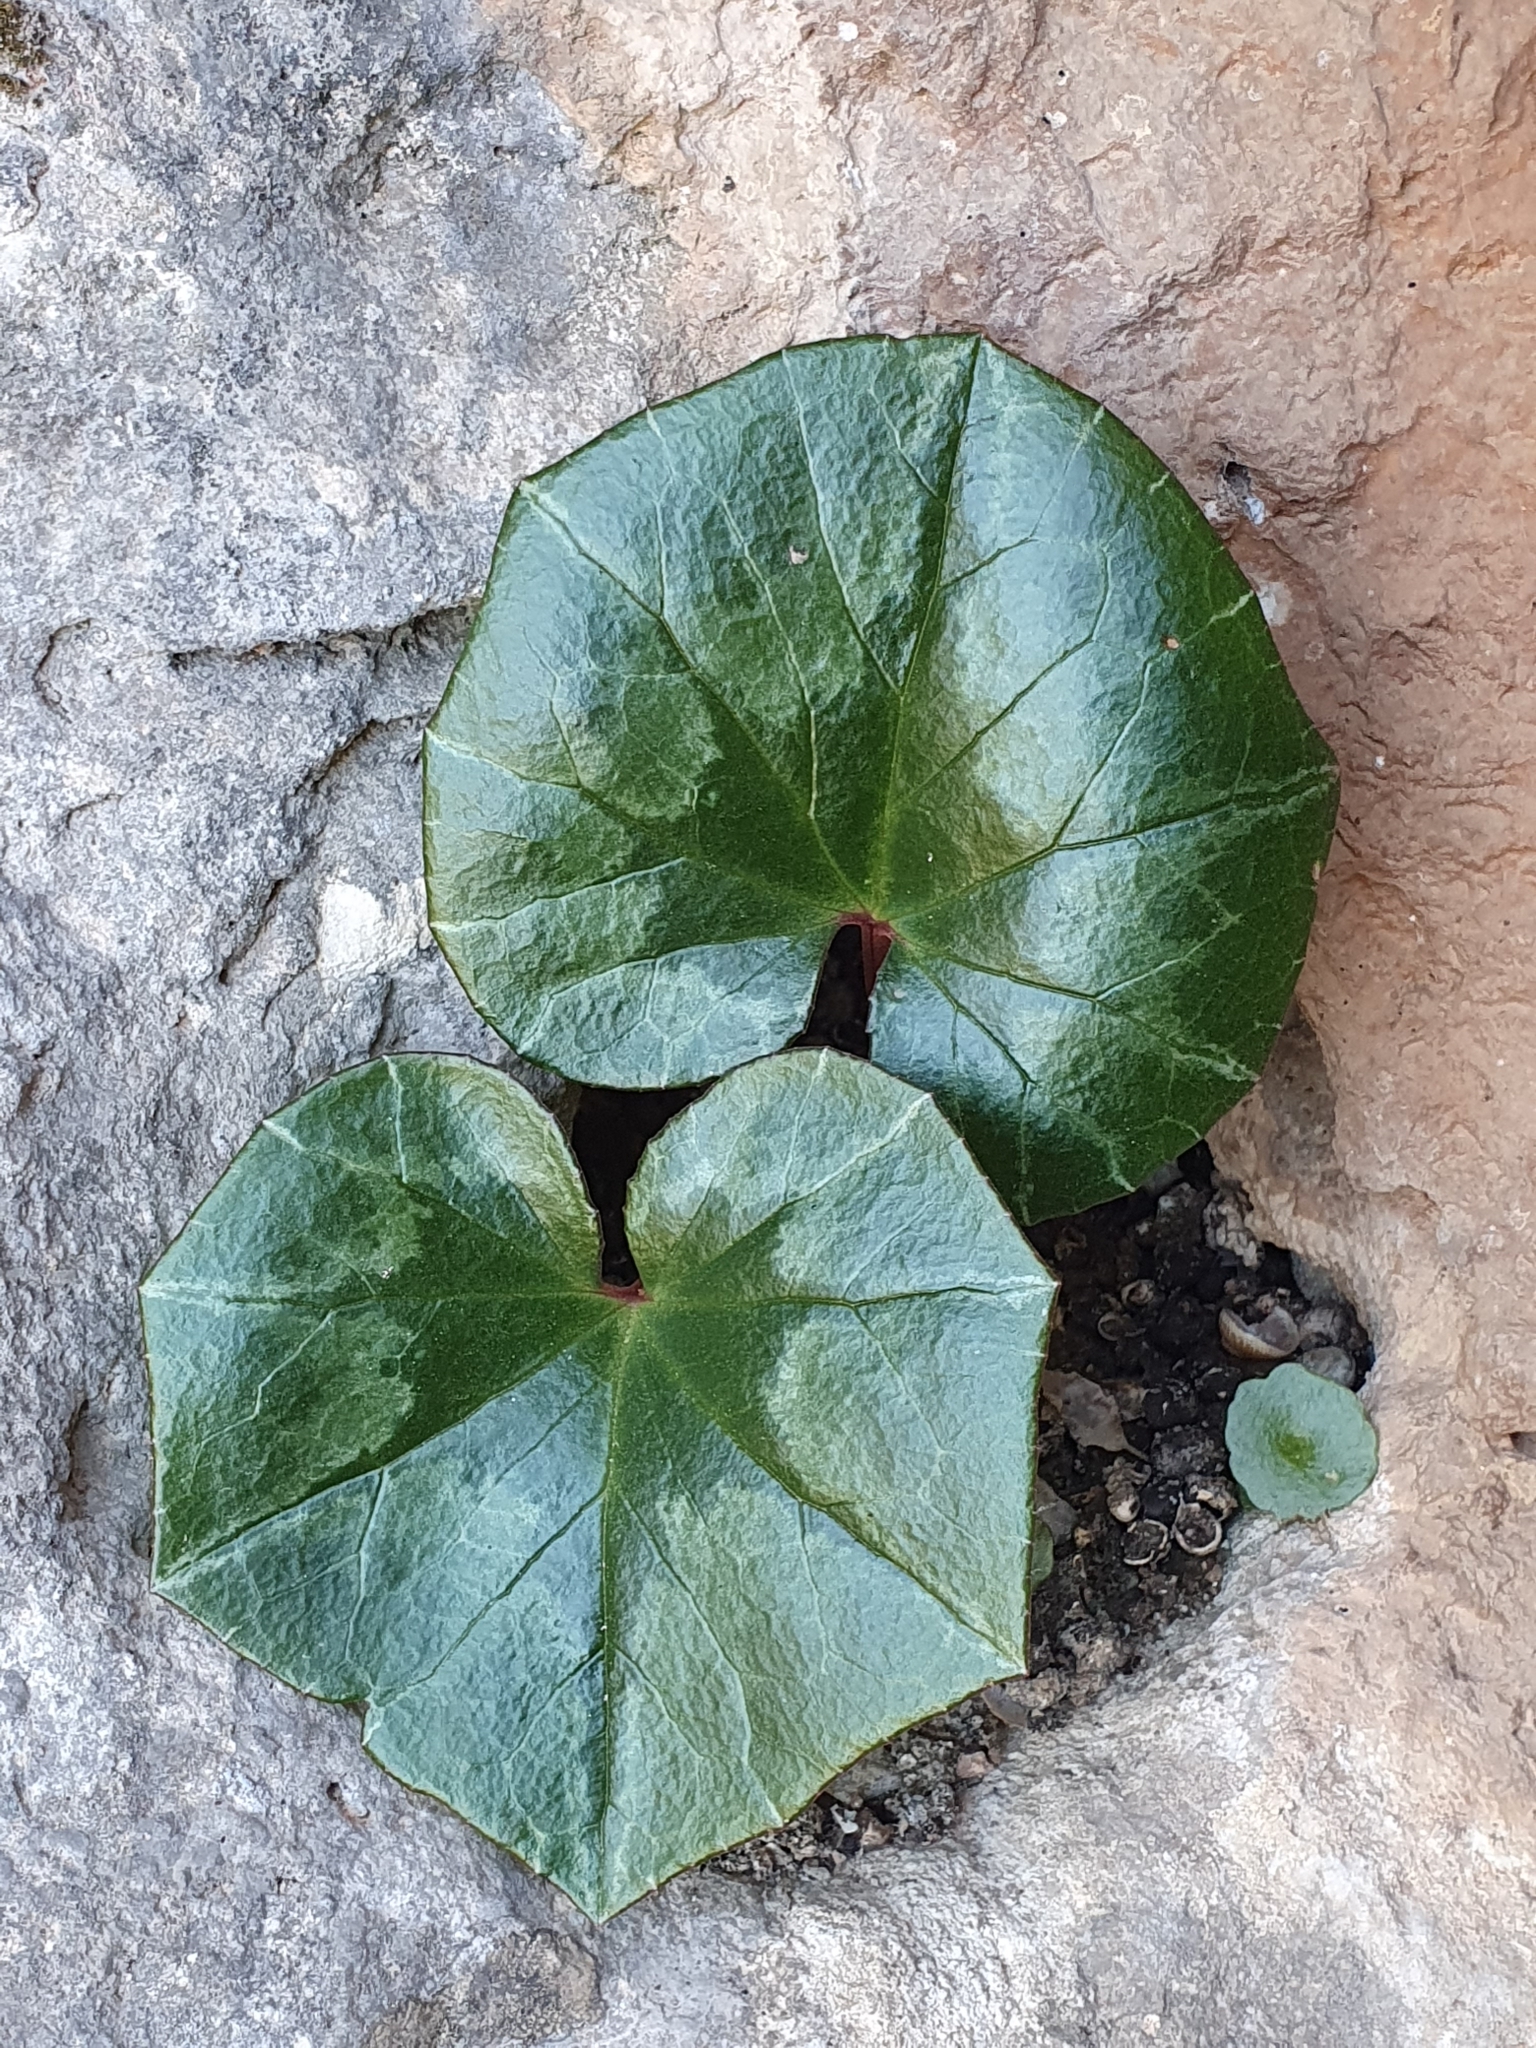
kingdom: Plantae
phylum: Tracheophyta
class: Magnoliopsida
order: Ericales
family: Primulaceae
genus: Cyclamen
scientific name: Cyclamen africanum
